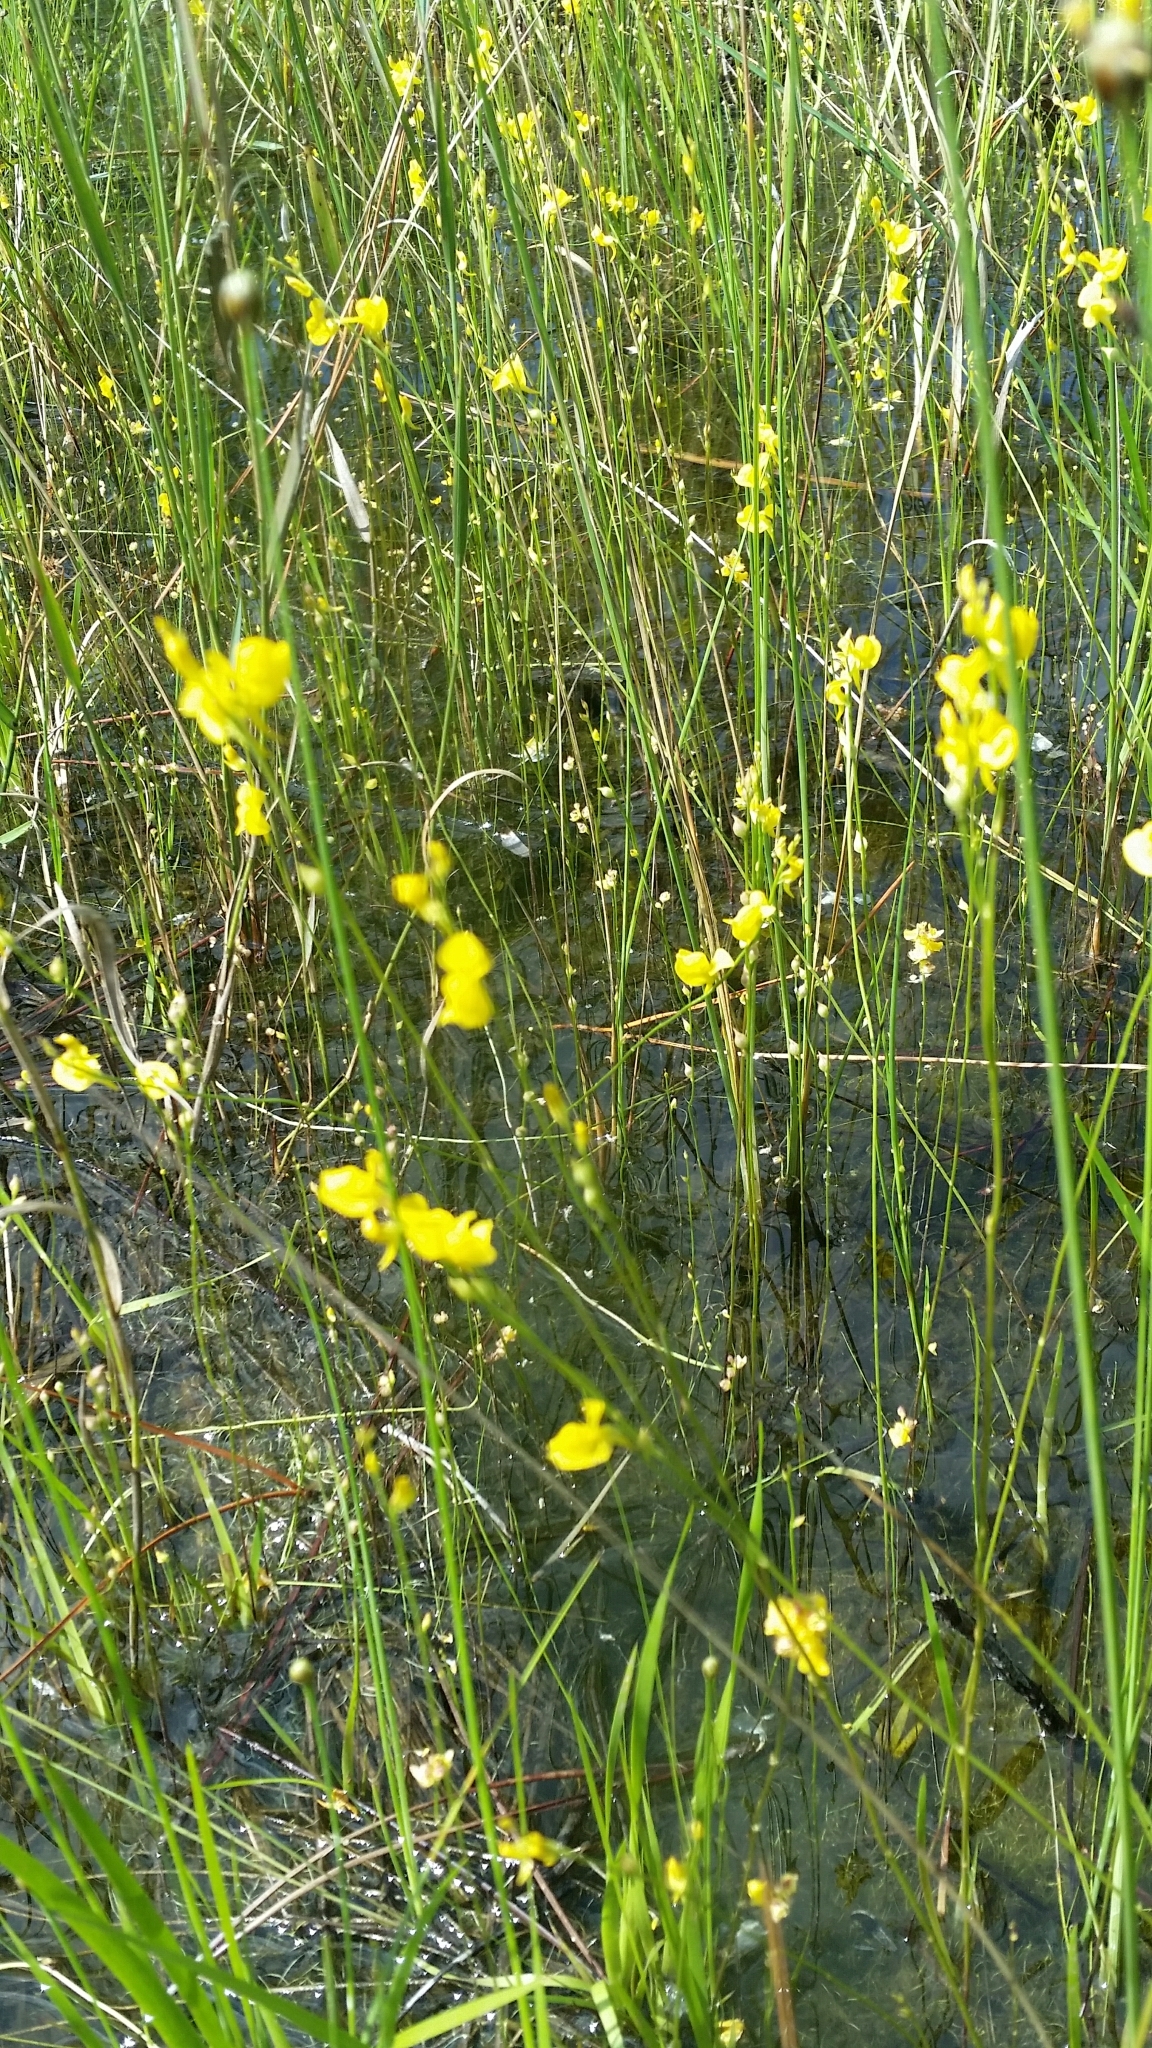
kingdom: Plantae
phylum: Tracheophyta
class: Magnoliopsida
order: Lamiales
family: Lentibulariaceae
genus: Utricularia
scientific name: Utricularia juncea
